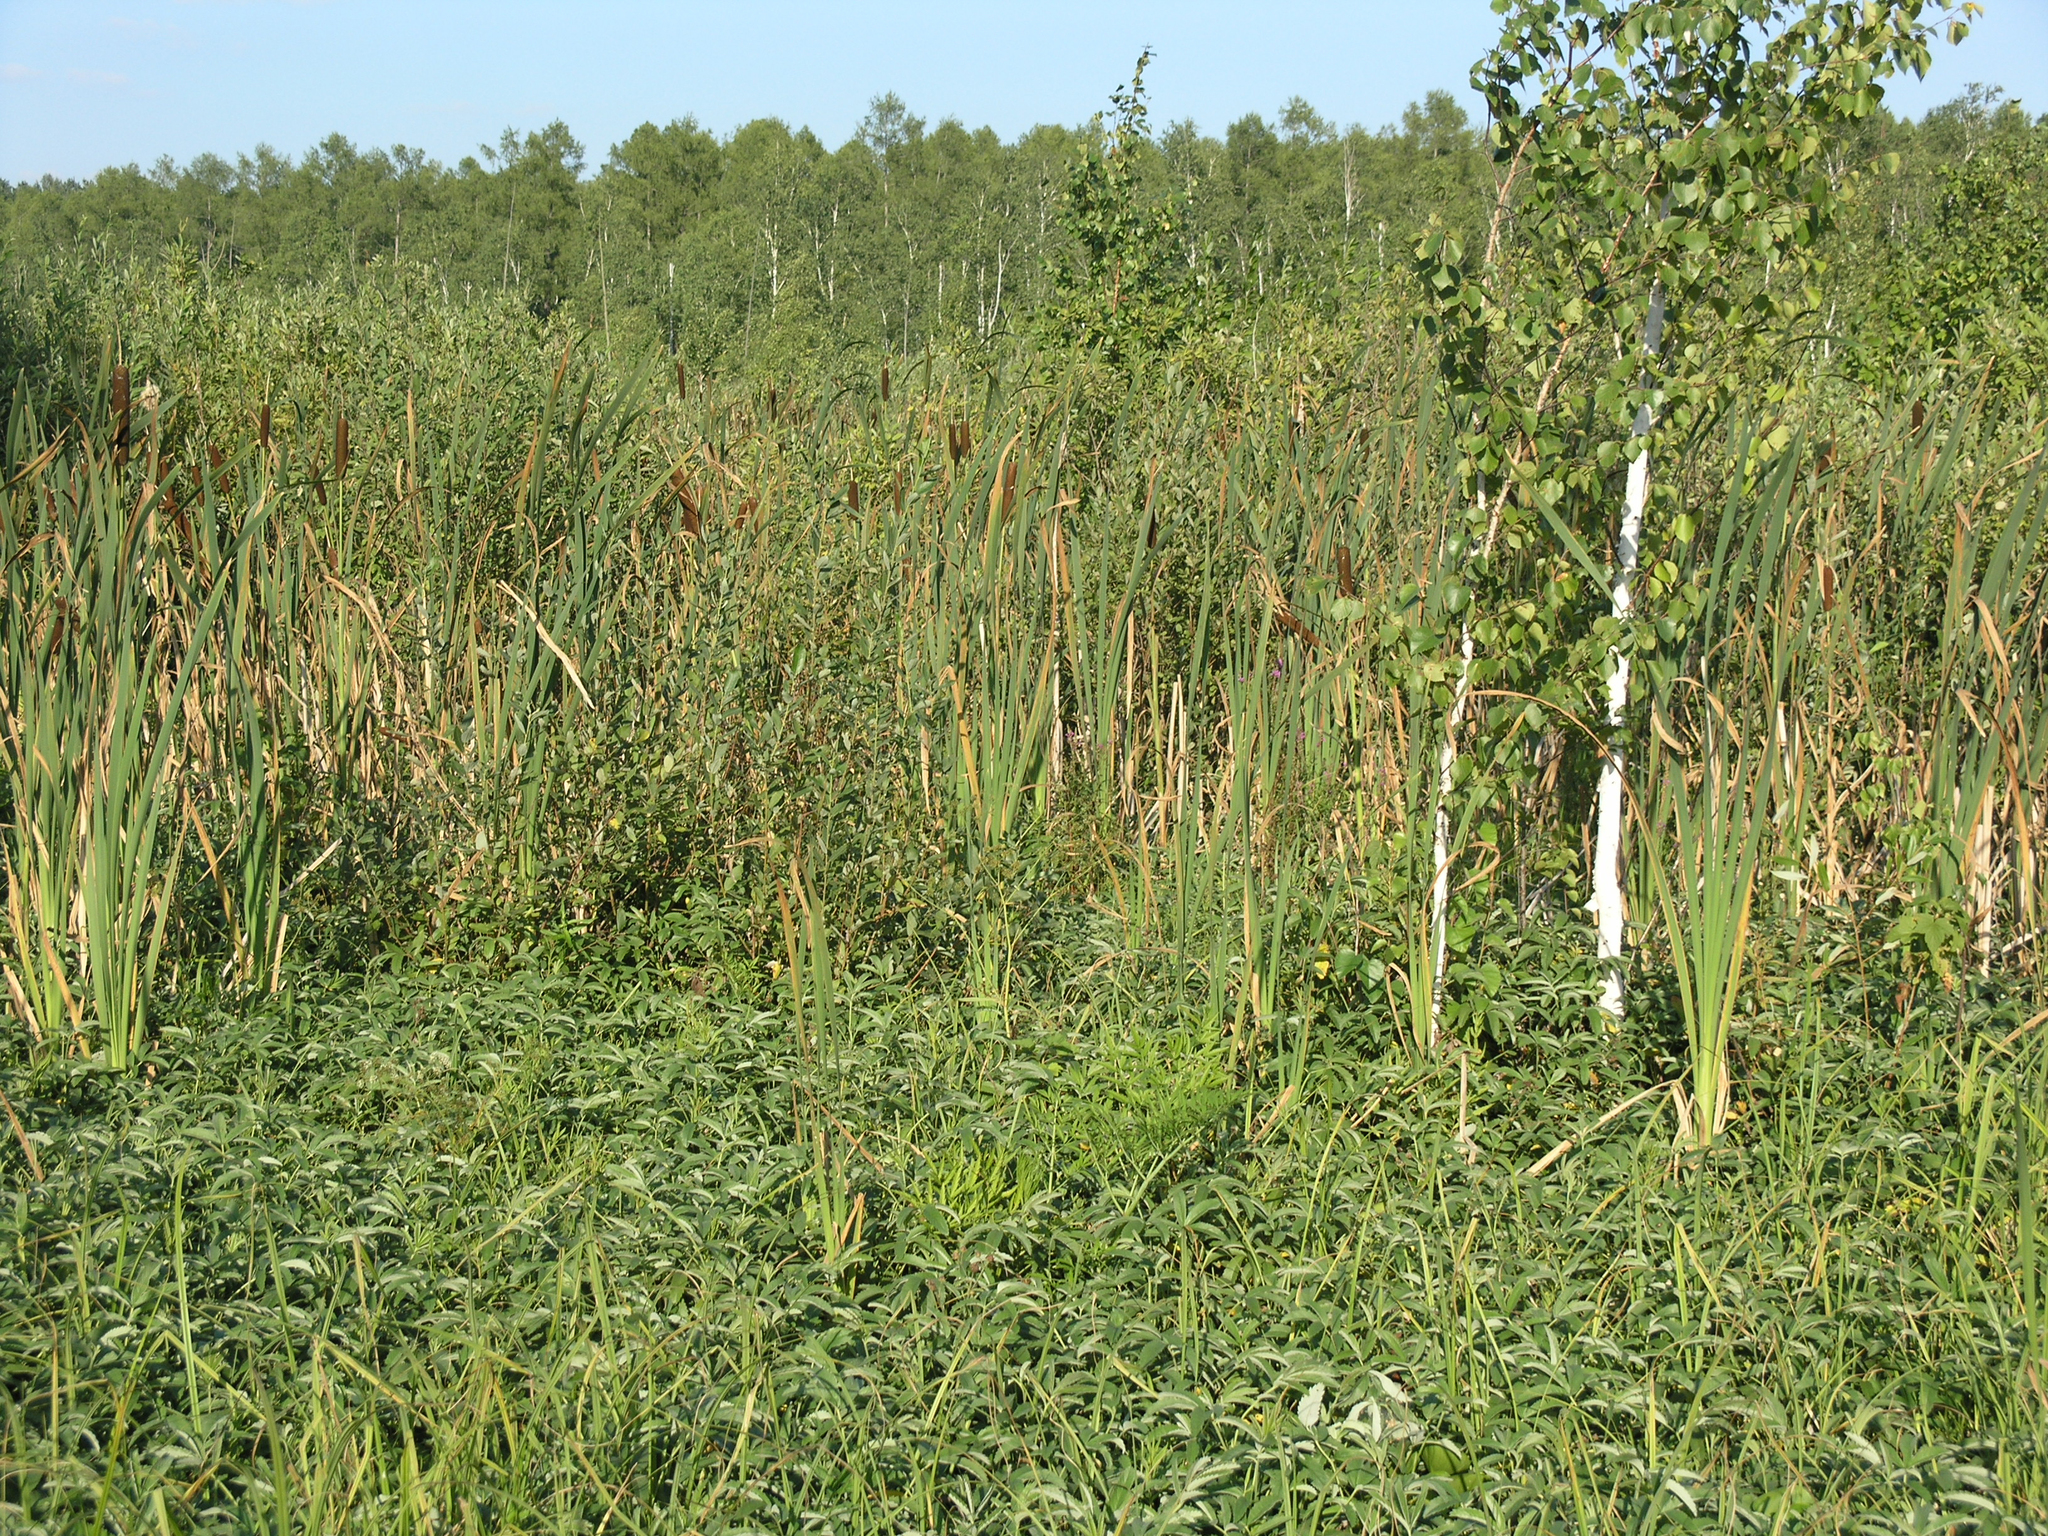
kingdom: Plantae
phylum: Tracheophyta
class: Liliopsida
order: Poales
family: Typhaceae
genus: Typha
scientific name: Typha latifolia
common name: Broadleaf cattail
